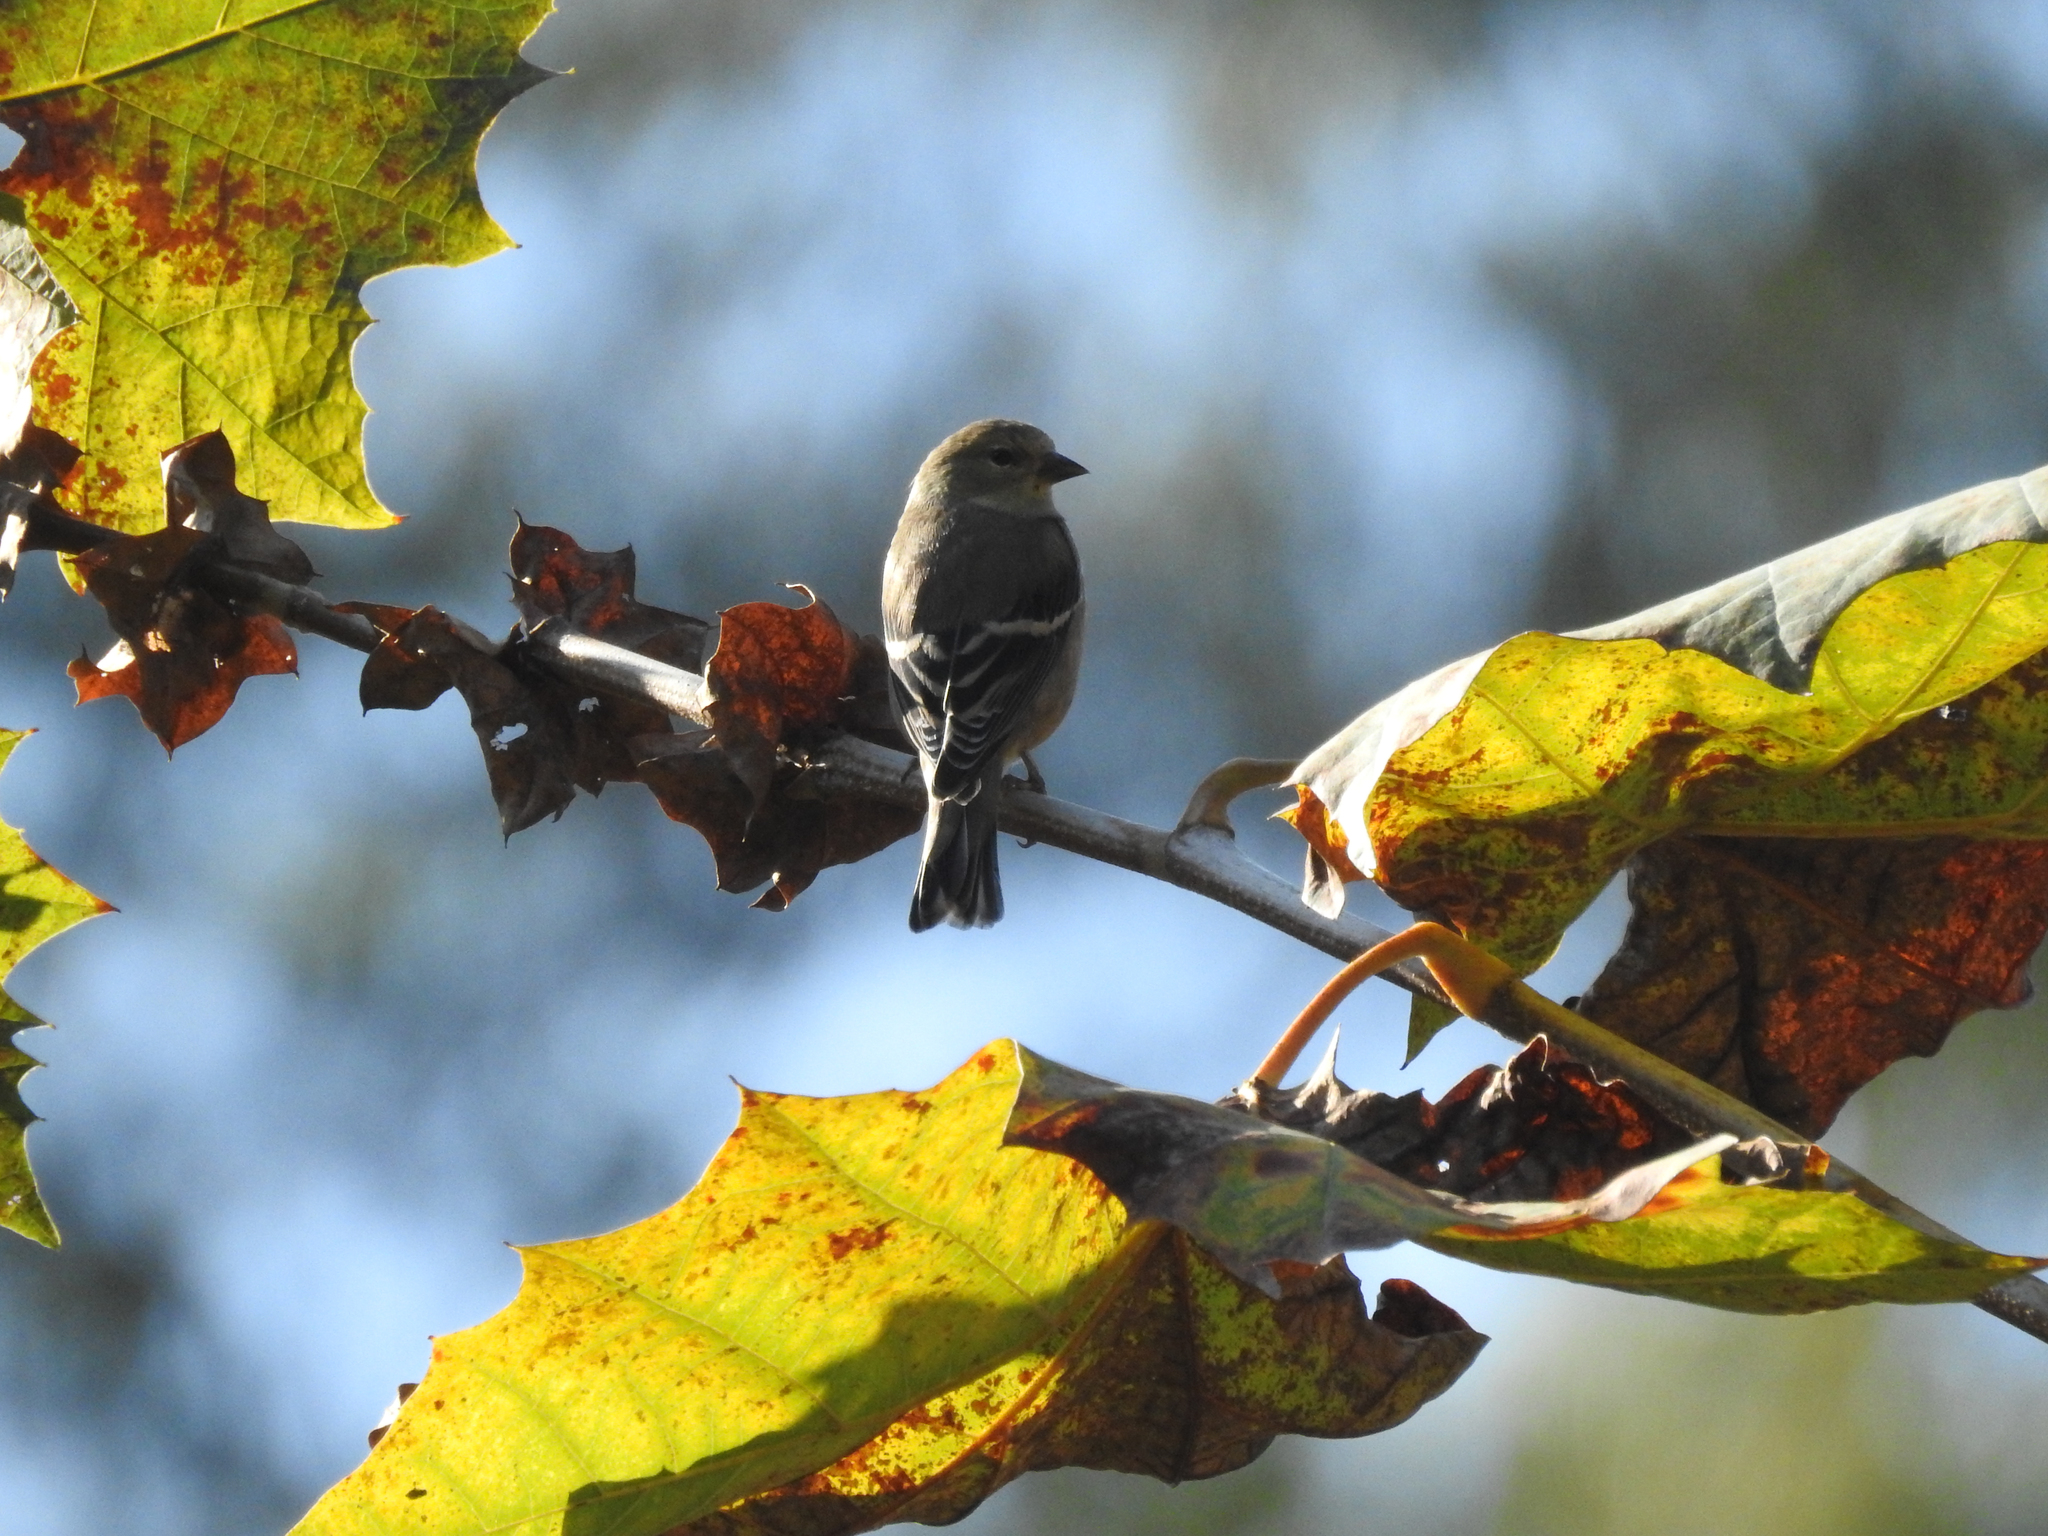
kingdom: Animalia
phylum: Chordata
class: Aves
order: Passeriformes
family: Fringillidae
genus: Spinus
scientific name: Spinus tristis
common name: American goldfinch
